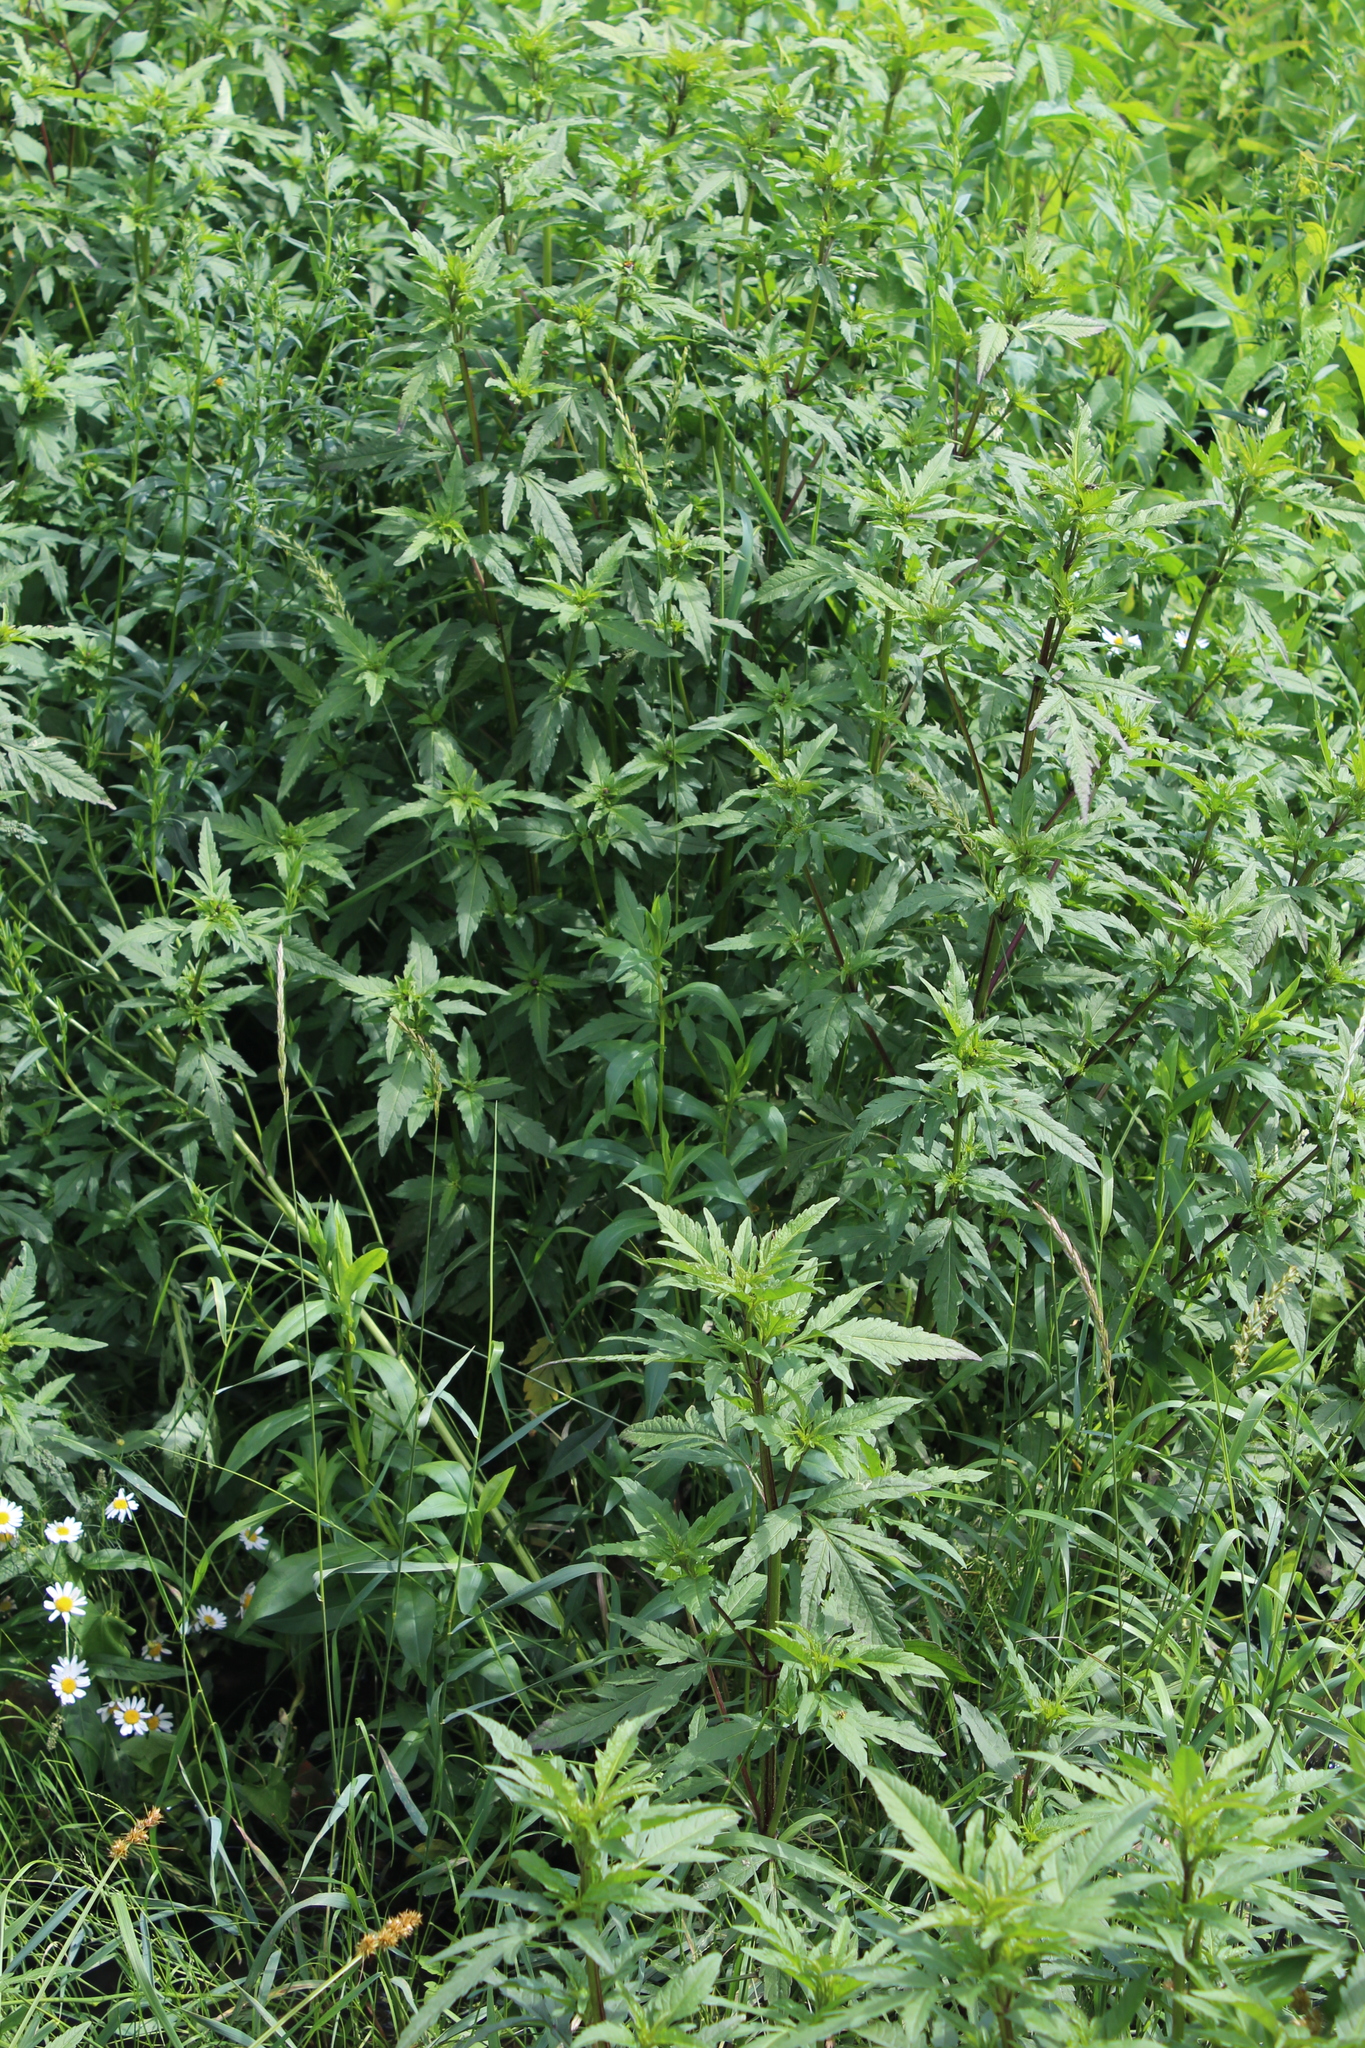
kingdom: Plantae
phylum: Tracheophyta
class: Magnoliopsida
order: Asterales
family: Asteraceae
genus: Bidens
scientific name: Bidens tripartita
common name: Trifid bur-marigold
